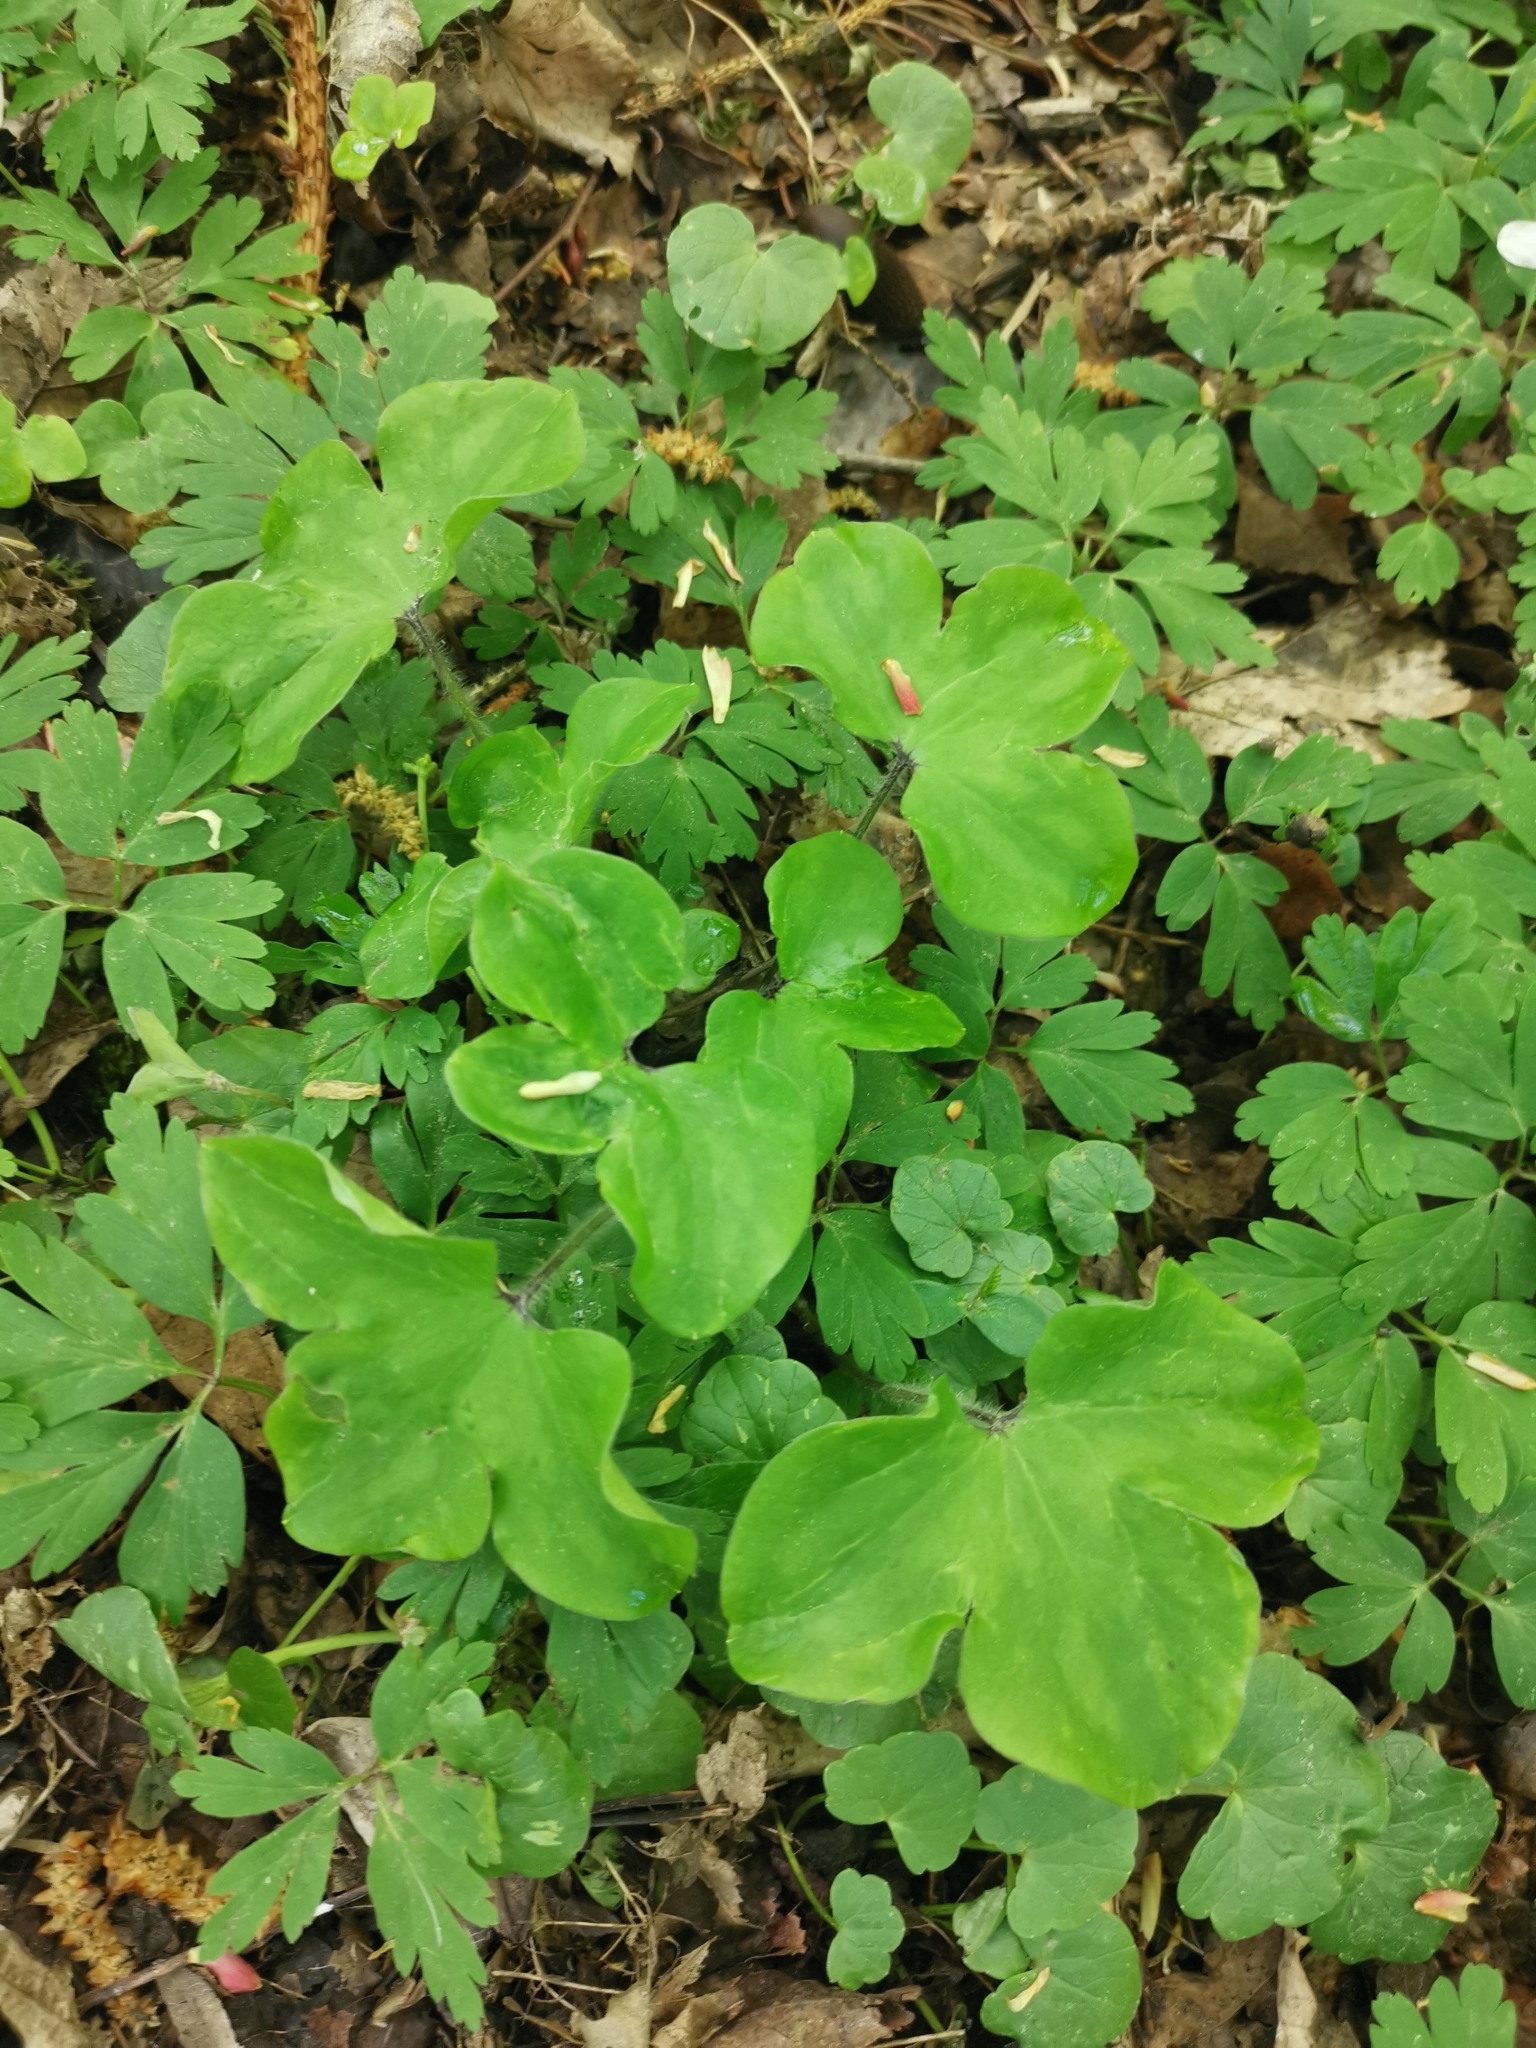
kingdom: Plantae
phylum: Tracheophyta
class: Magnoliopsida
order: Ranunculales
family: Ranunculaceae
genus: Hepatica
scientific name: Hepatica nobilis
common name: Liverleaf
